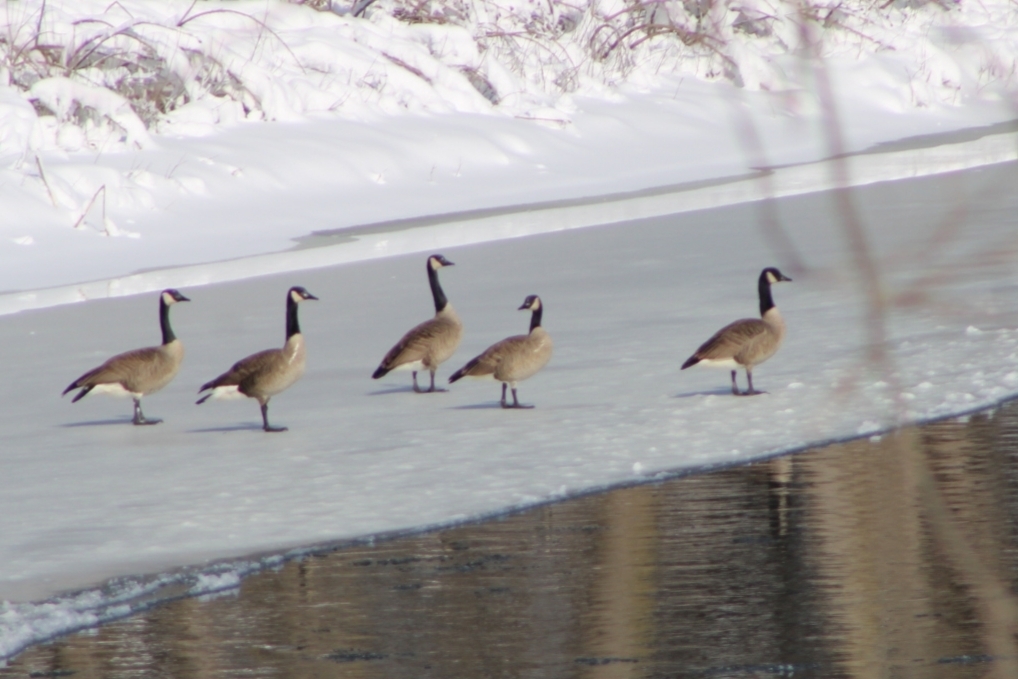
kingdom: Animalia
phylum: Chordata
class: Aves
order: Anseriformes
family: Anatidae
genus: Branta
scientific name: Branta canadensis
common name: Canada goose
